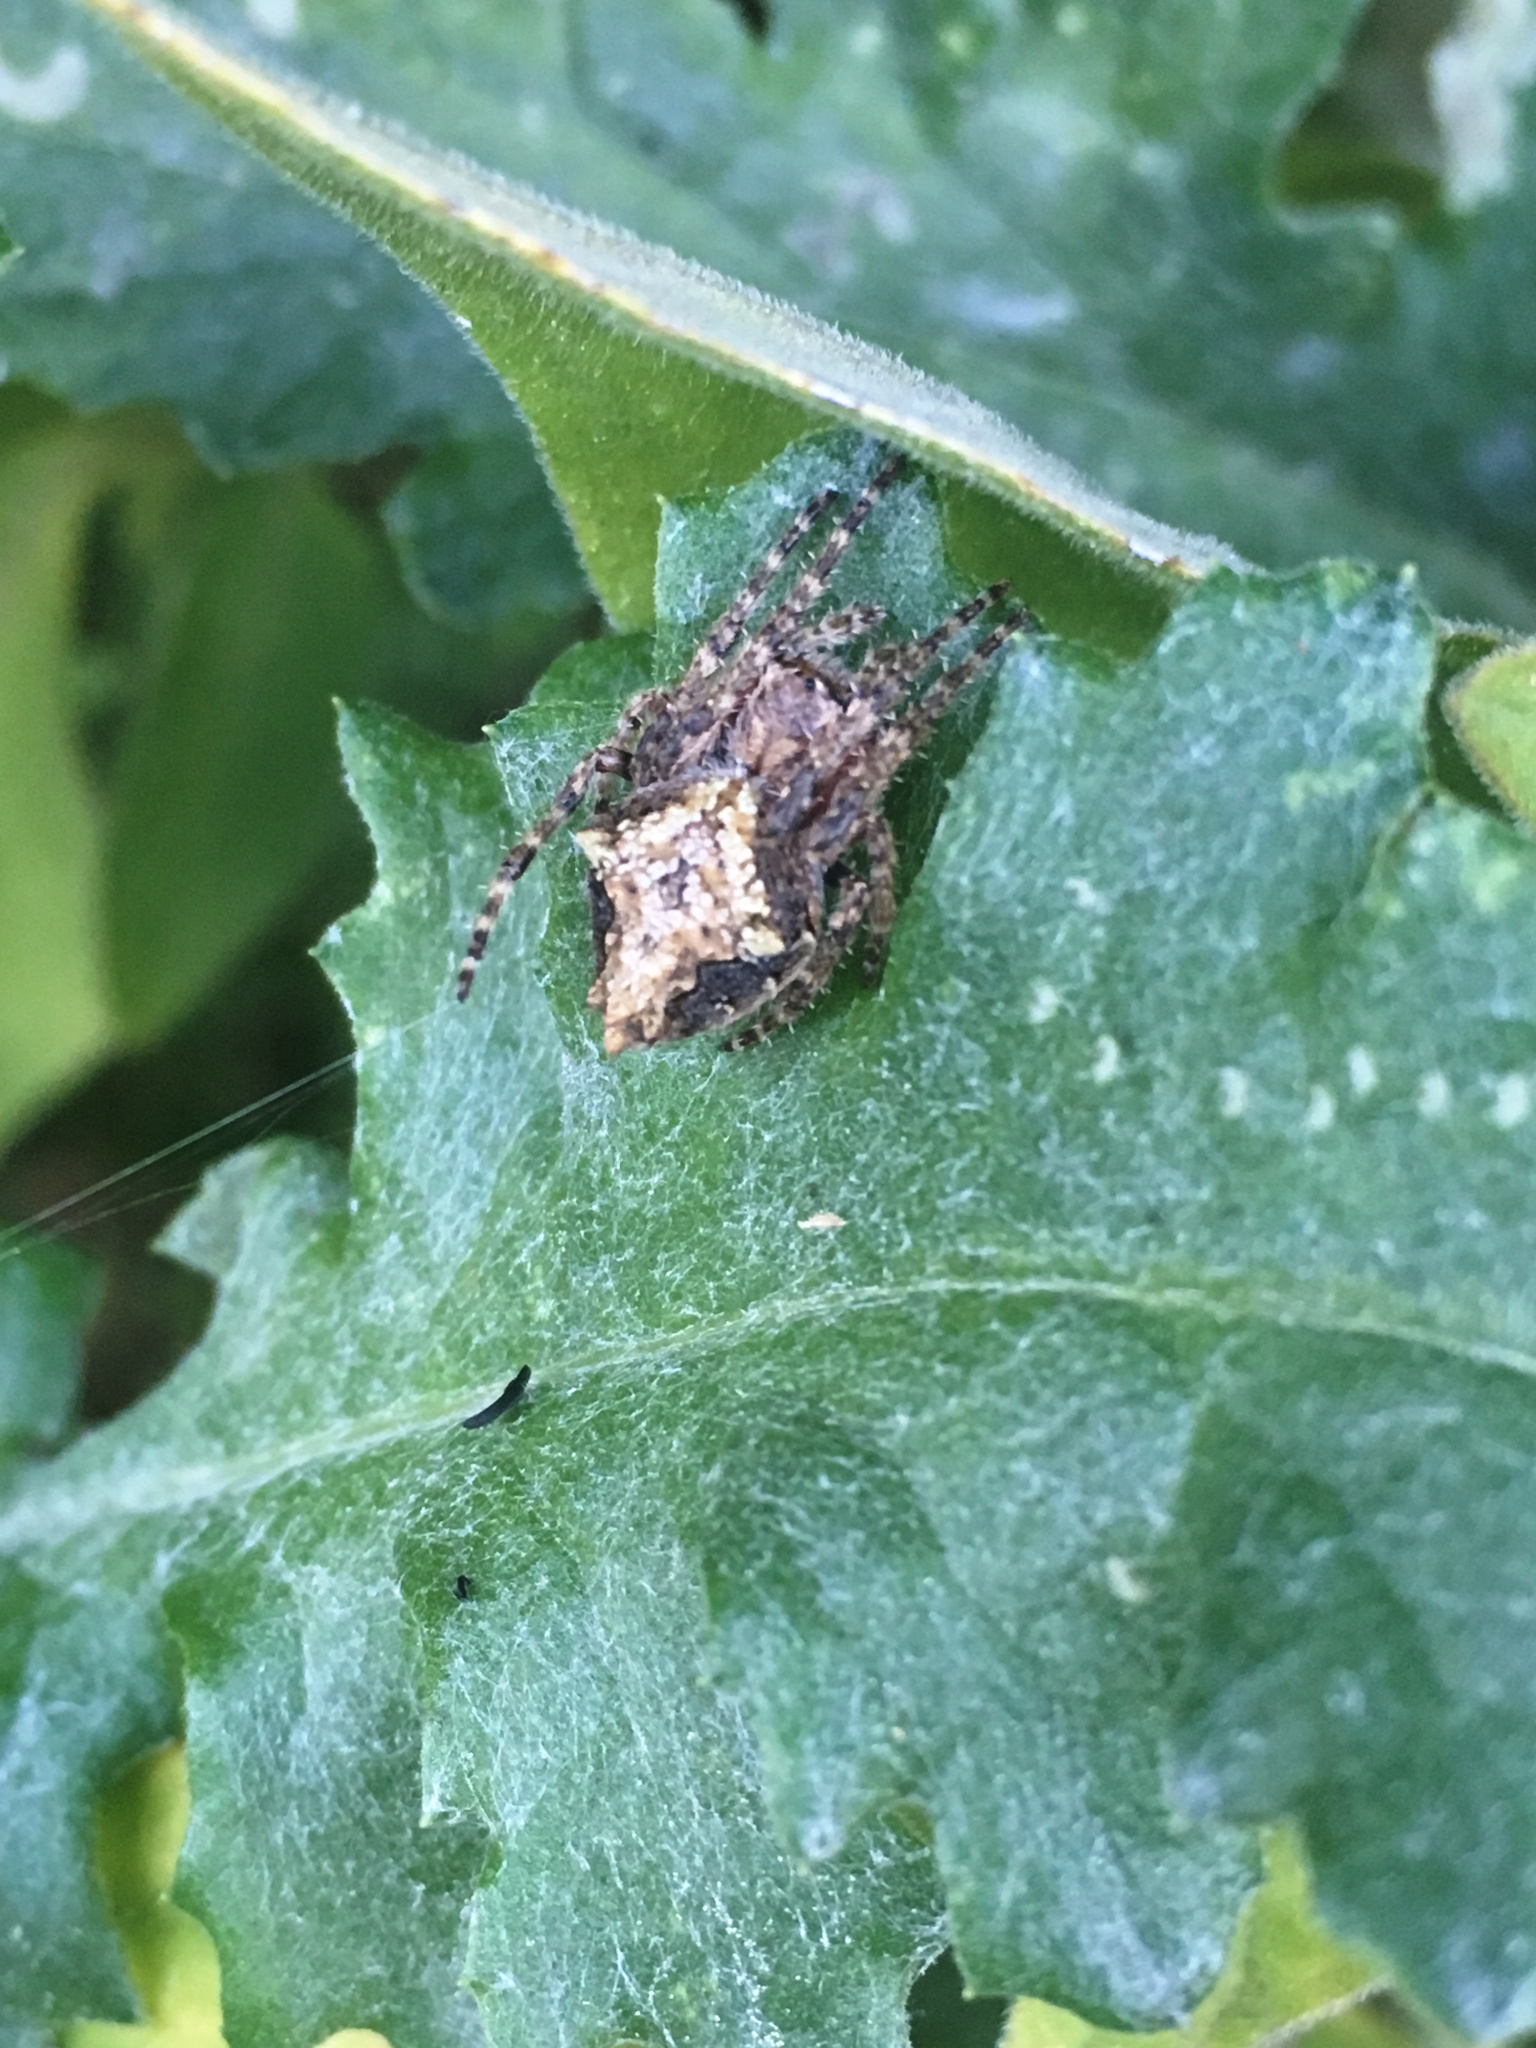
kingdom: Animalia
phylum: Arthropoda
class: Arachnida
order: Araneae
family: Araneidae
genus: Eriophora
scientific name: Eriophora pustulosa
